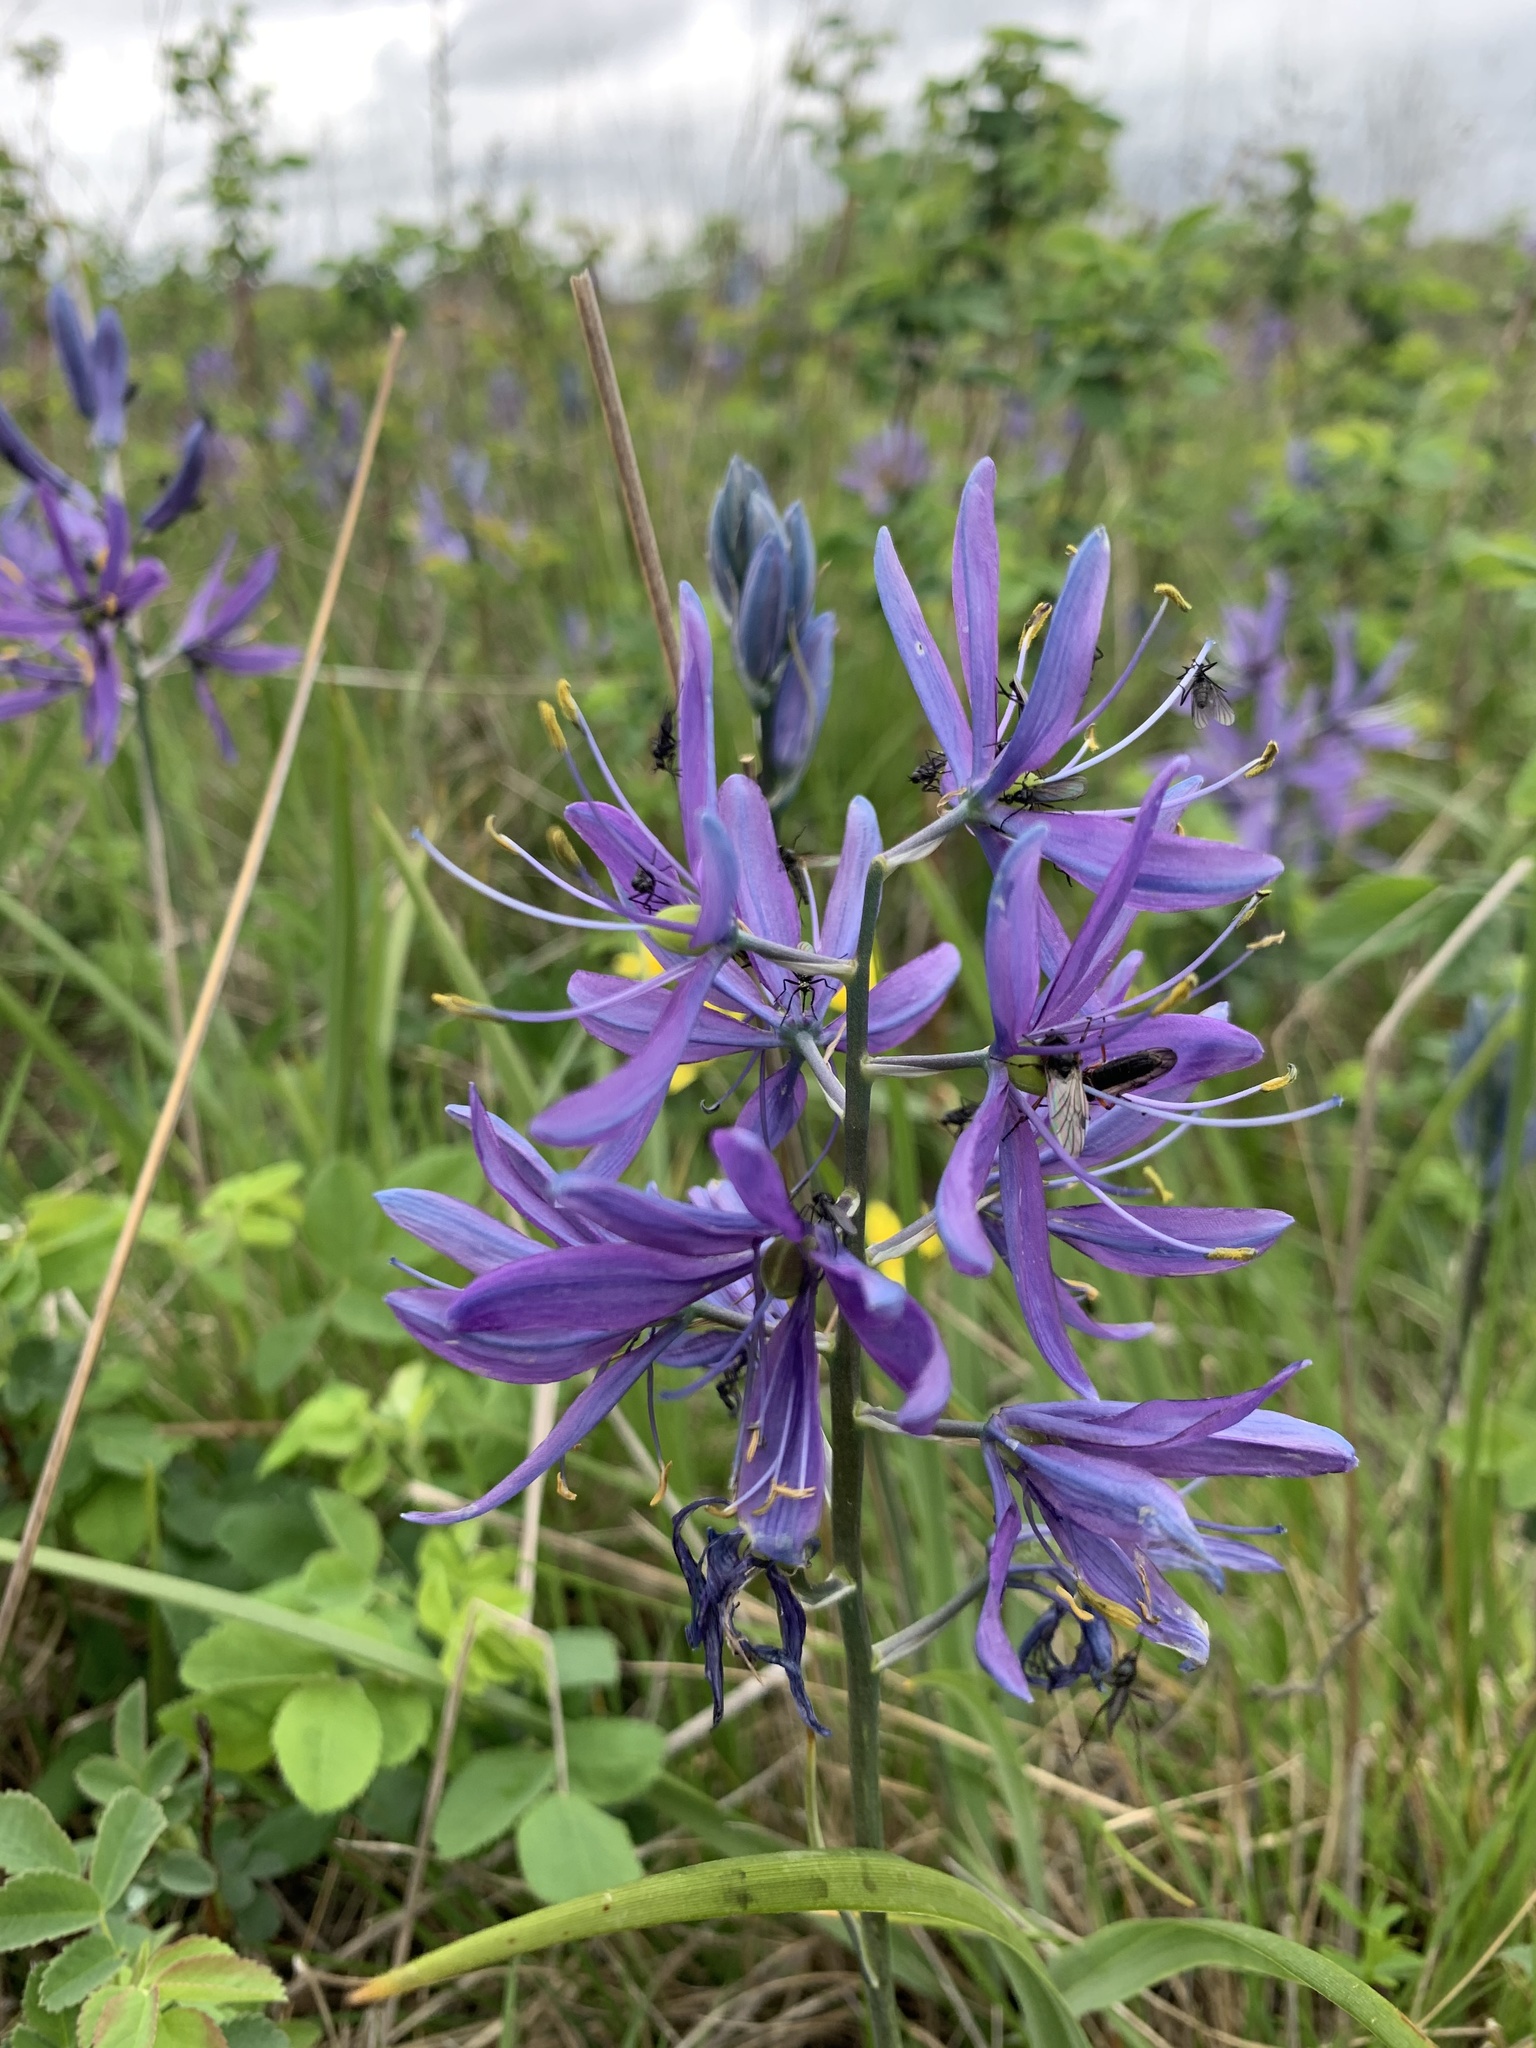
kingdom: Plantae
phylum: Tracheophyta
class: Liliopsida
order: Asparagales
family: Asparagaceae
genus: Camassia
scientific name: Camassia quamash
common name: Common camas
